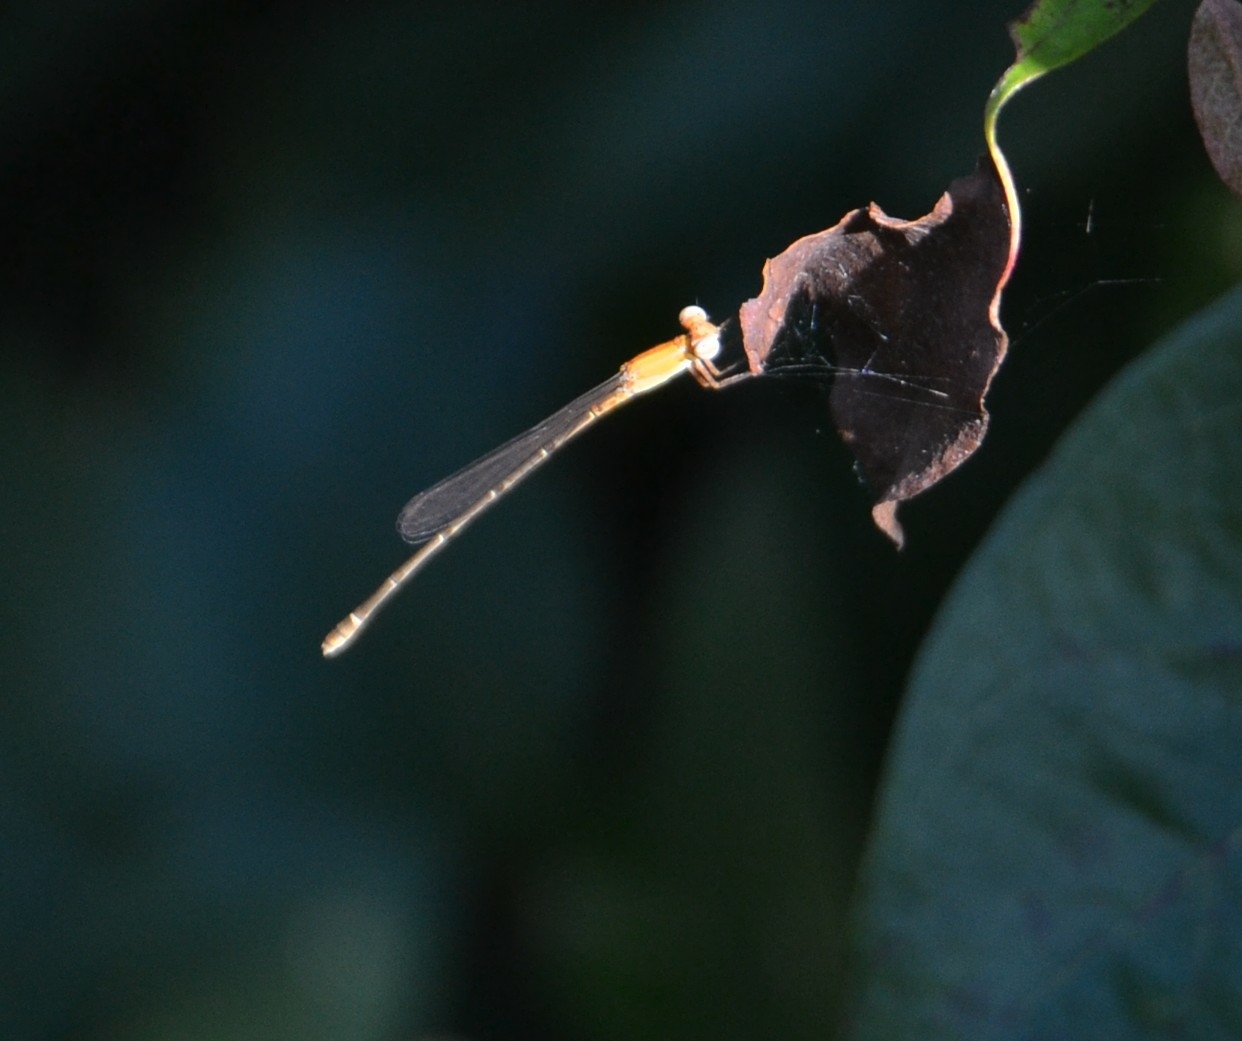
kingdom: Animalia
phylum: Arthropoda
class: Insecta
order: Odonata
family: Coenagrionidae
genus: Mortonagrion
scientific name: Mortonagrion varralli
